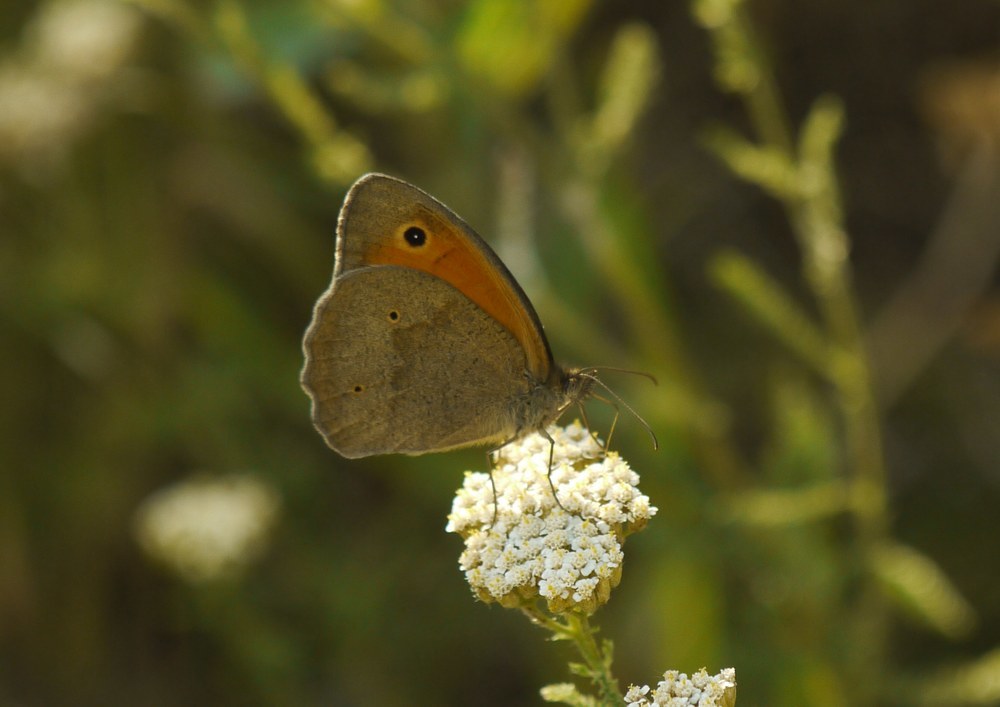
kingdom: Animalia
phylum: Arthropoda
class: Insecta
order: Lepidoptera
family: Nymphalidae
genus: Maniola
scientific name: Maniola jurtina
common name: Meadow brown
